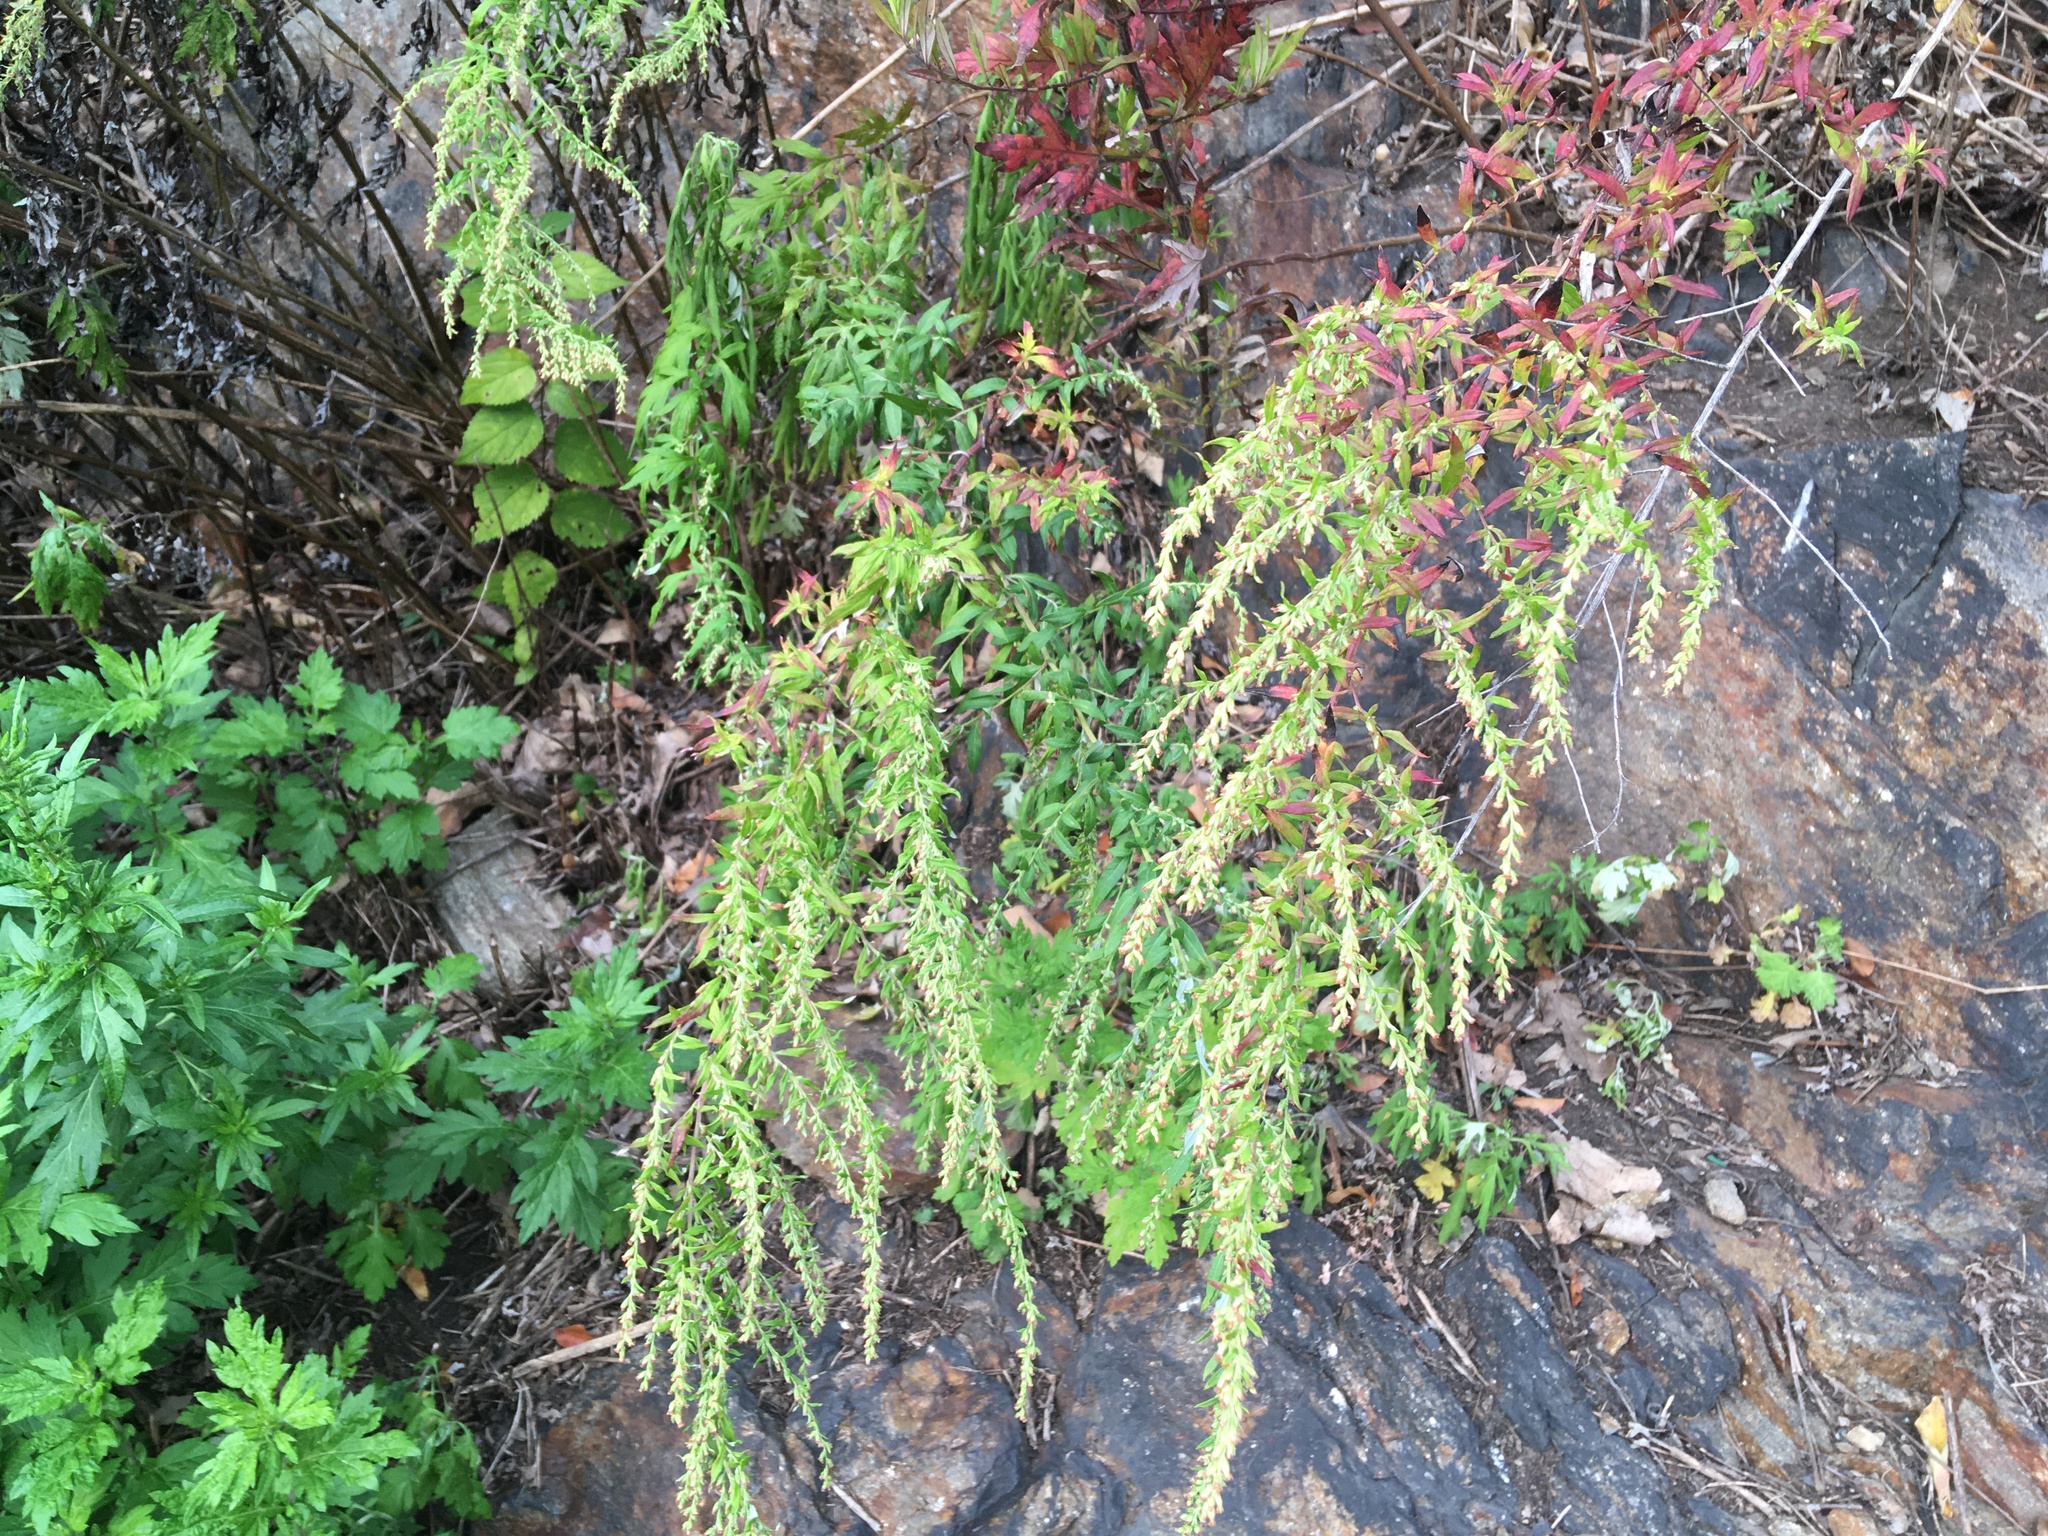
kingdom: Plantae
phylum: Tracheophyta
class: Magnoliopsida
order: Asterales
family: Asteraceae
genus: Artemisia
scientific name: Artemisia vulgaris
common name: Mugwort
